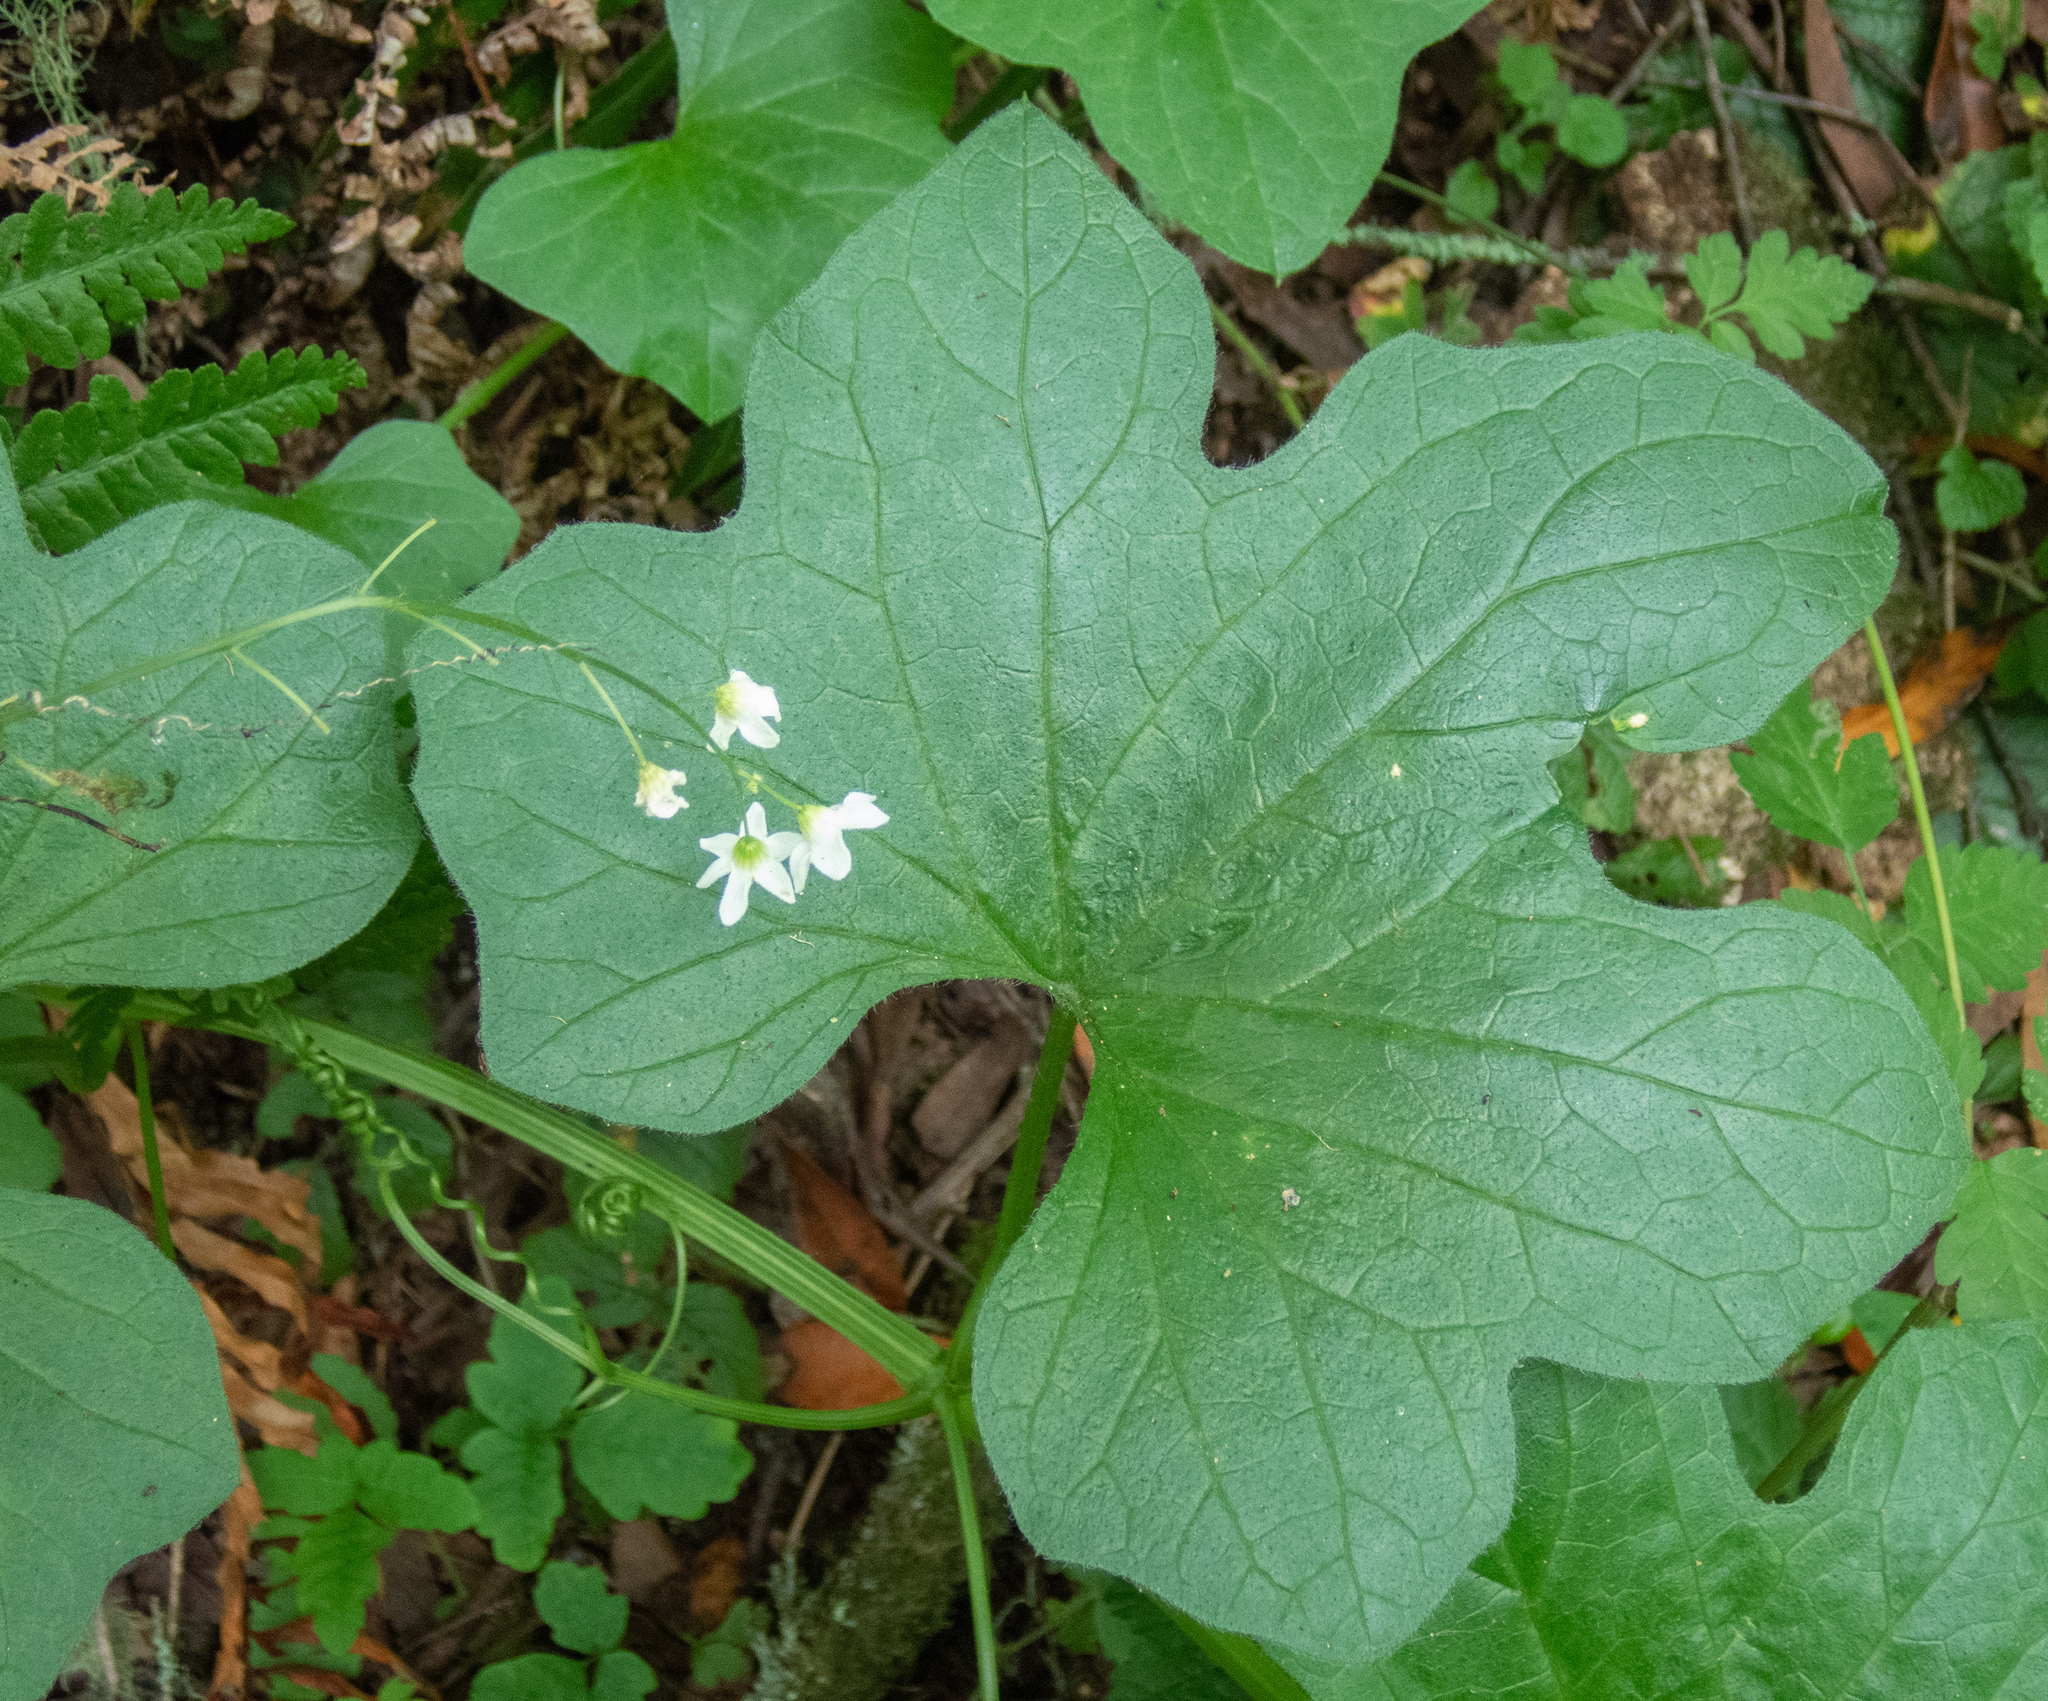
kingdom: Plantae
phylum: Tracheophyta
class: Magnoliopsida
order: Cucurbitales
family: Cucurbitaceae
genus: Marah
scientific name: Marah oregana
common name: Coastal manroot
